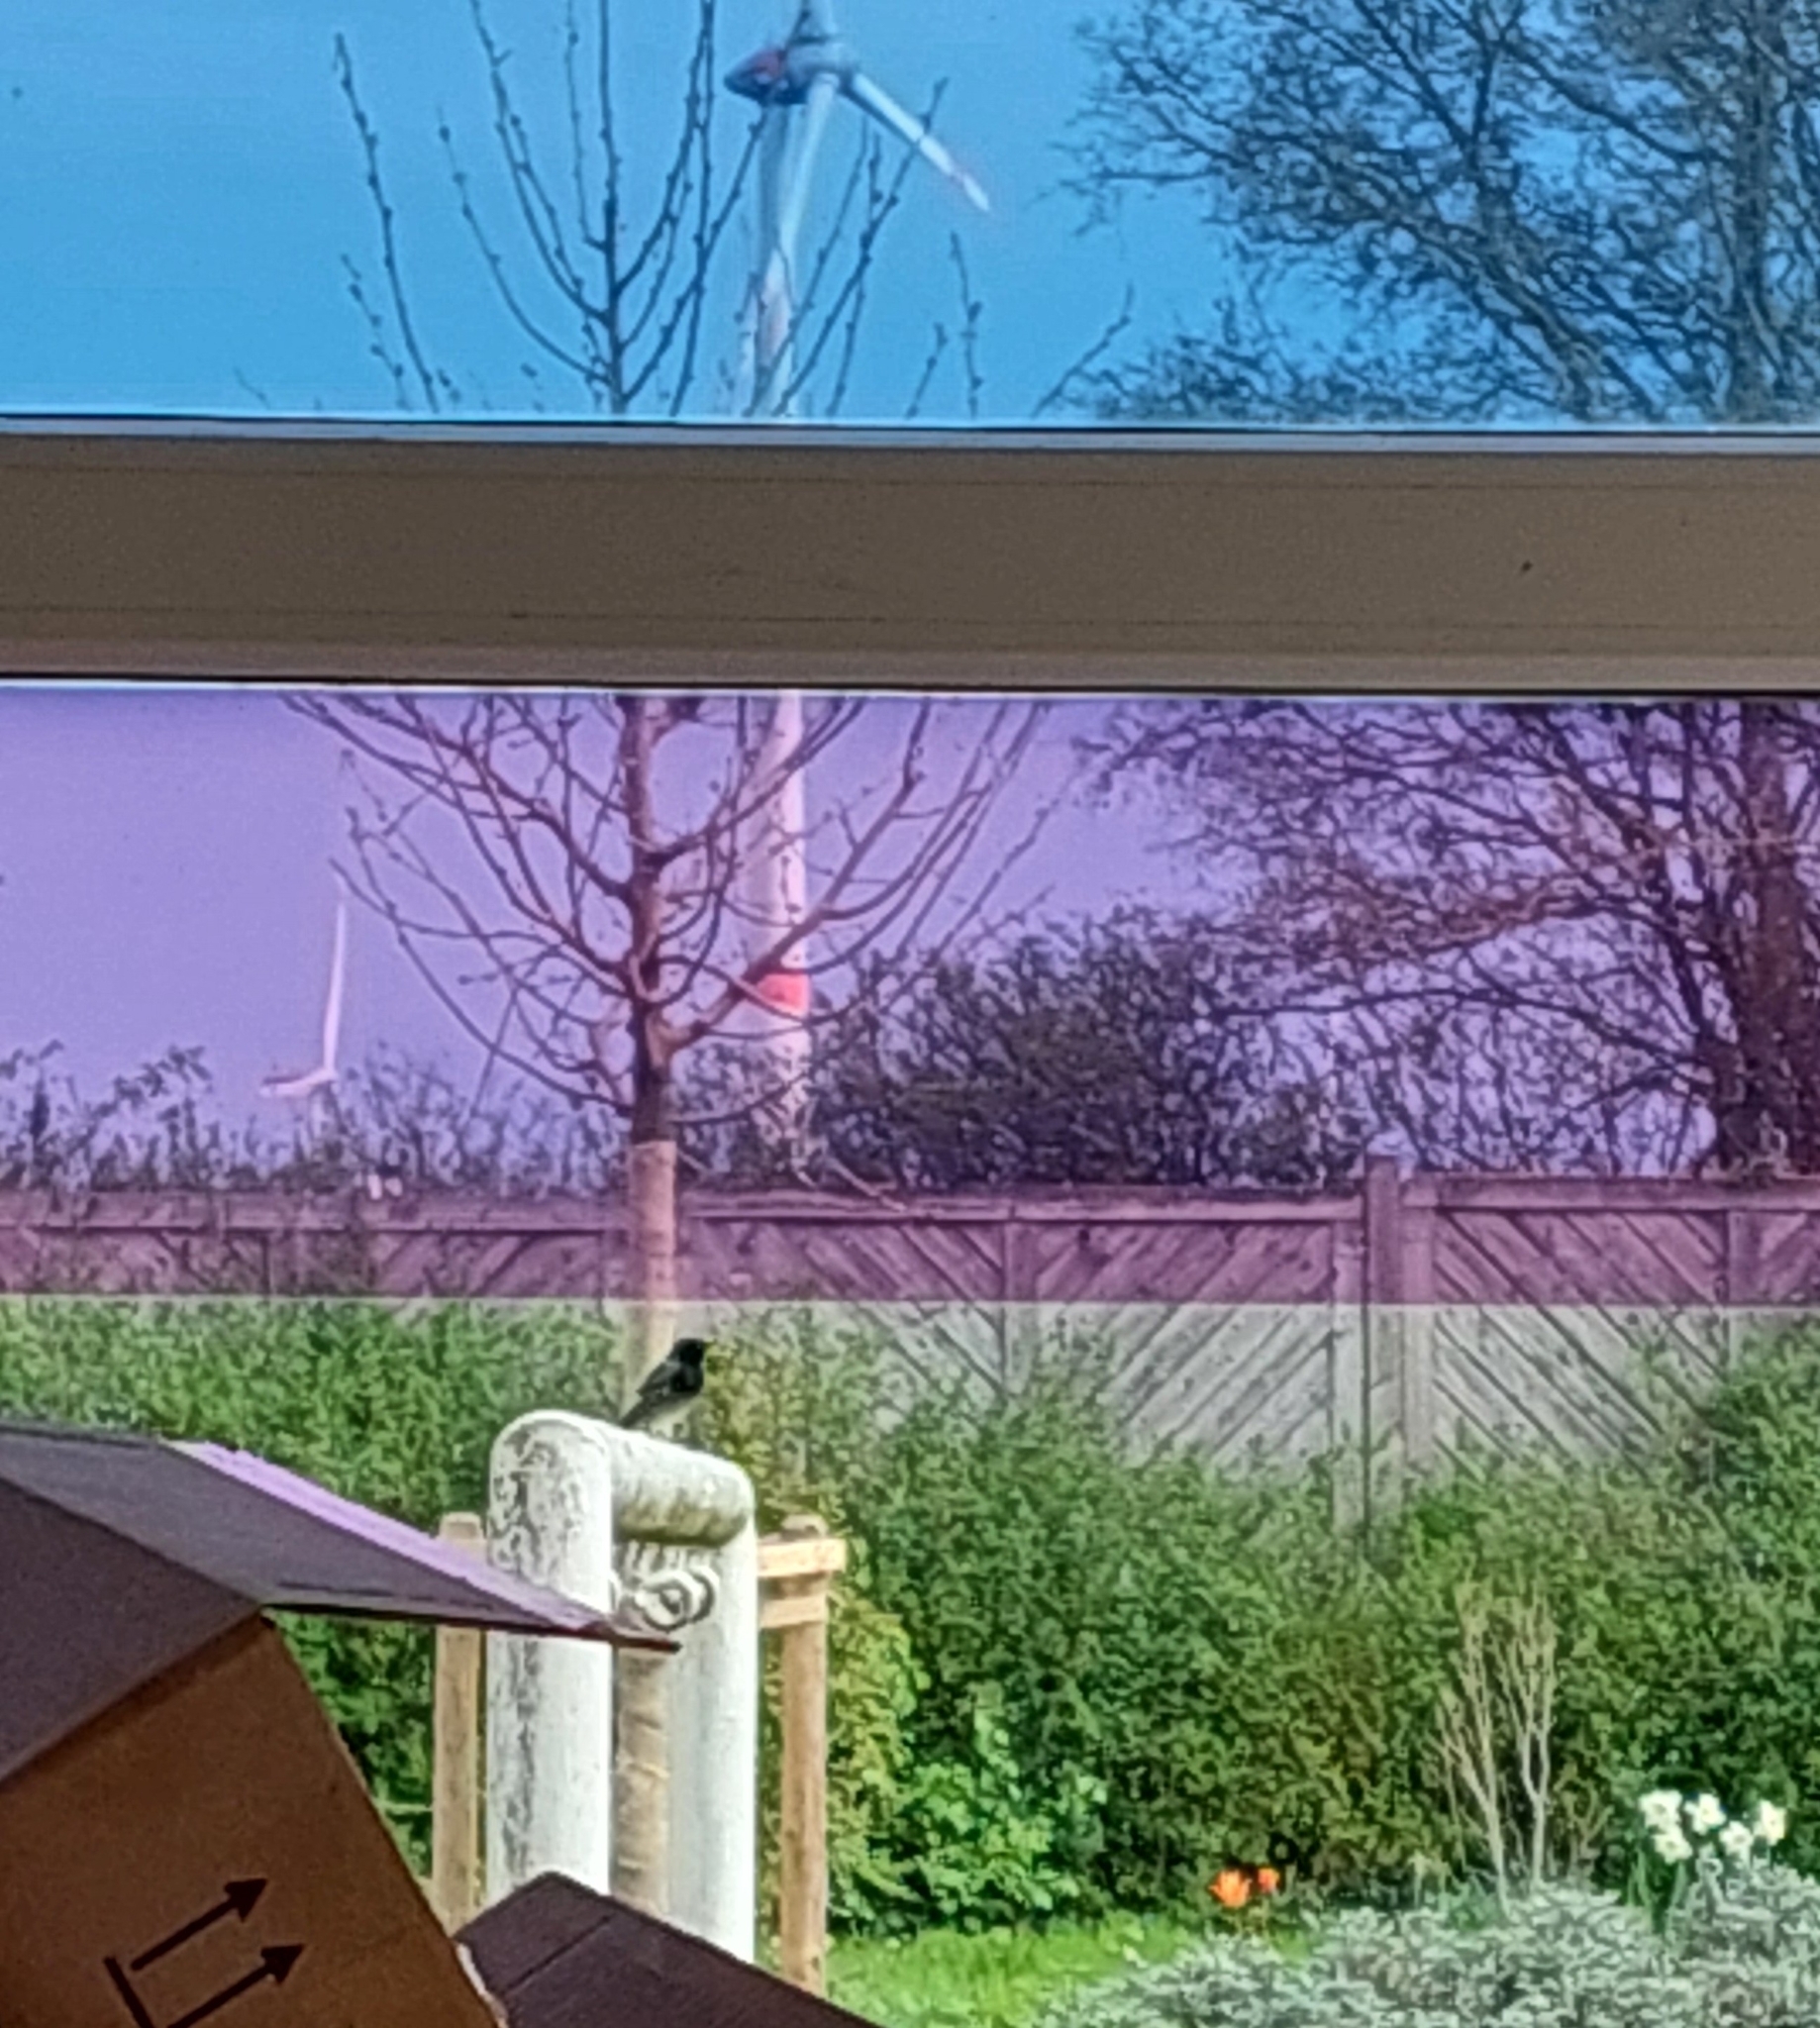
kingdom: Animalia
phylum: Chordata
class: Aves
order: Passeriformes
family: Muscicapidae
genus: Phoenicurus
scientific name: Phoenicurus ochruros
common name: Black redstart
